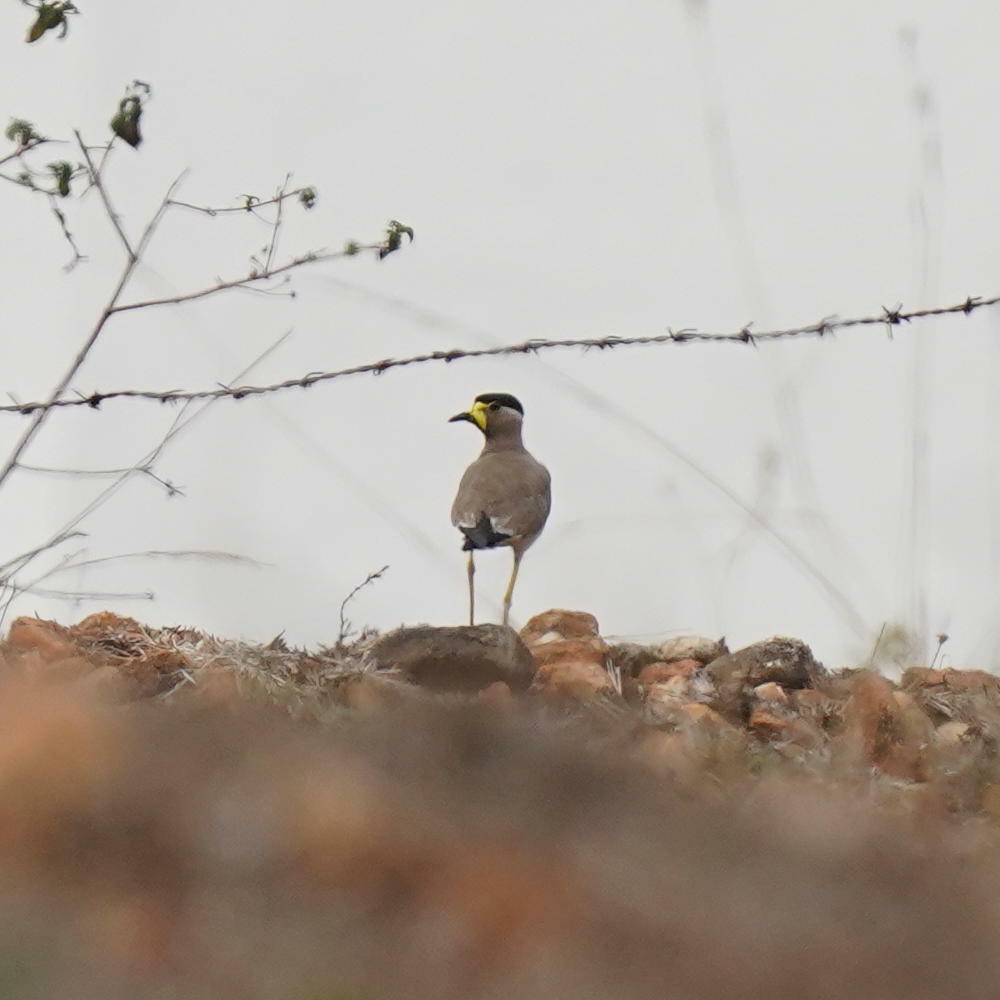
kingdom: Animalia
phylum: Chordata
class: Aves
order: Charadriiformes
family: Charadriidae
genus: Vanellus
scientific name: Vanellus malabaricus
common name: Yellow-wattled lapwing
